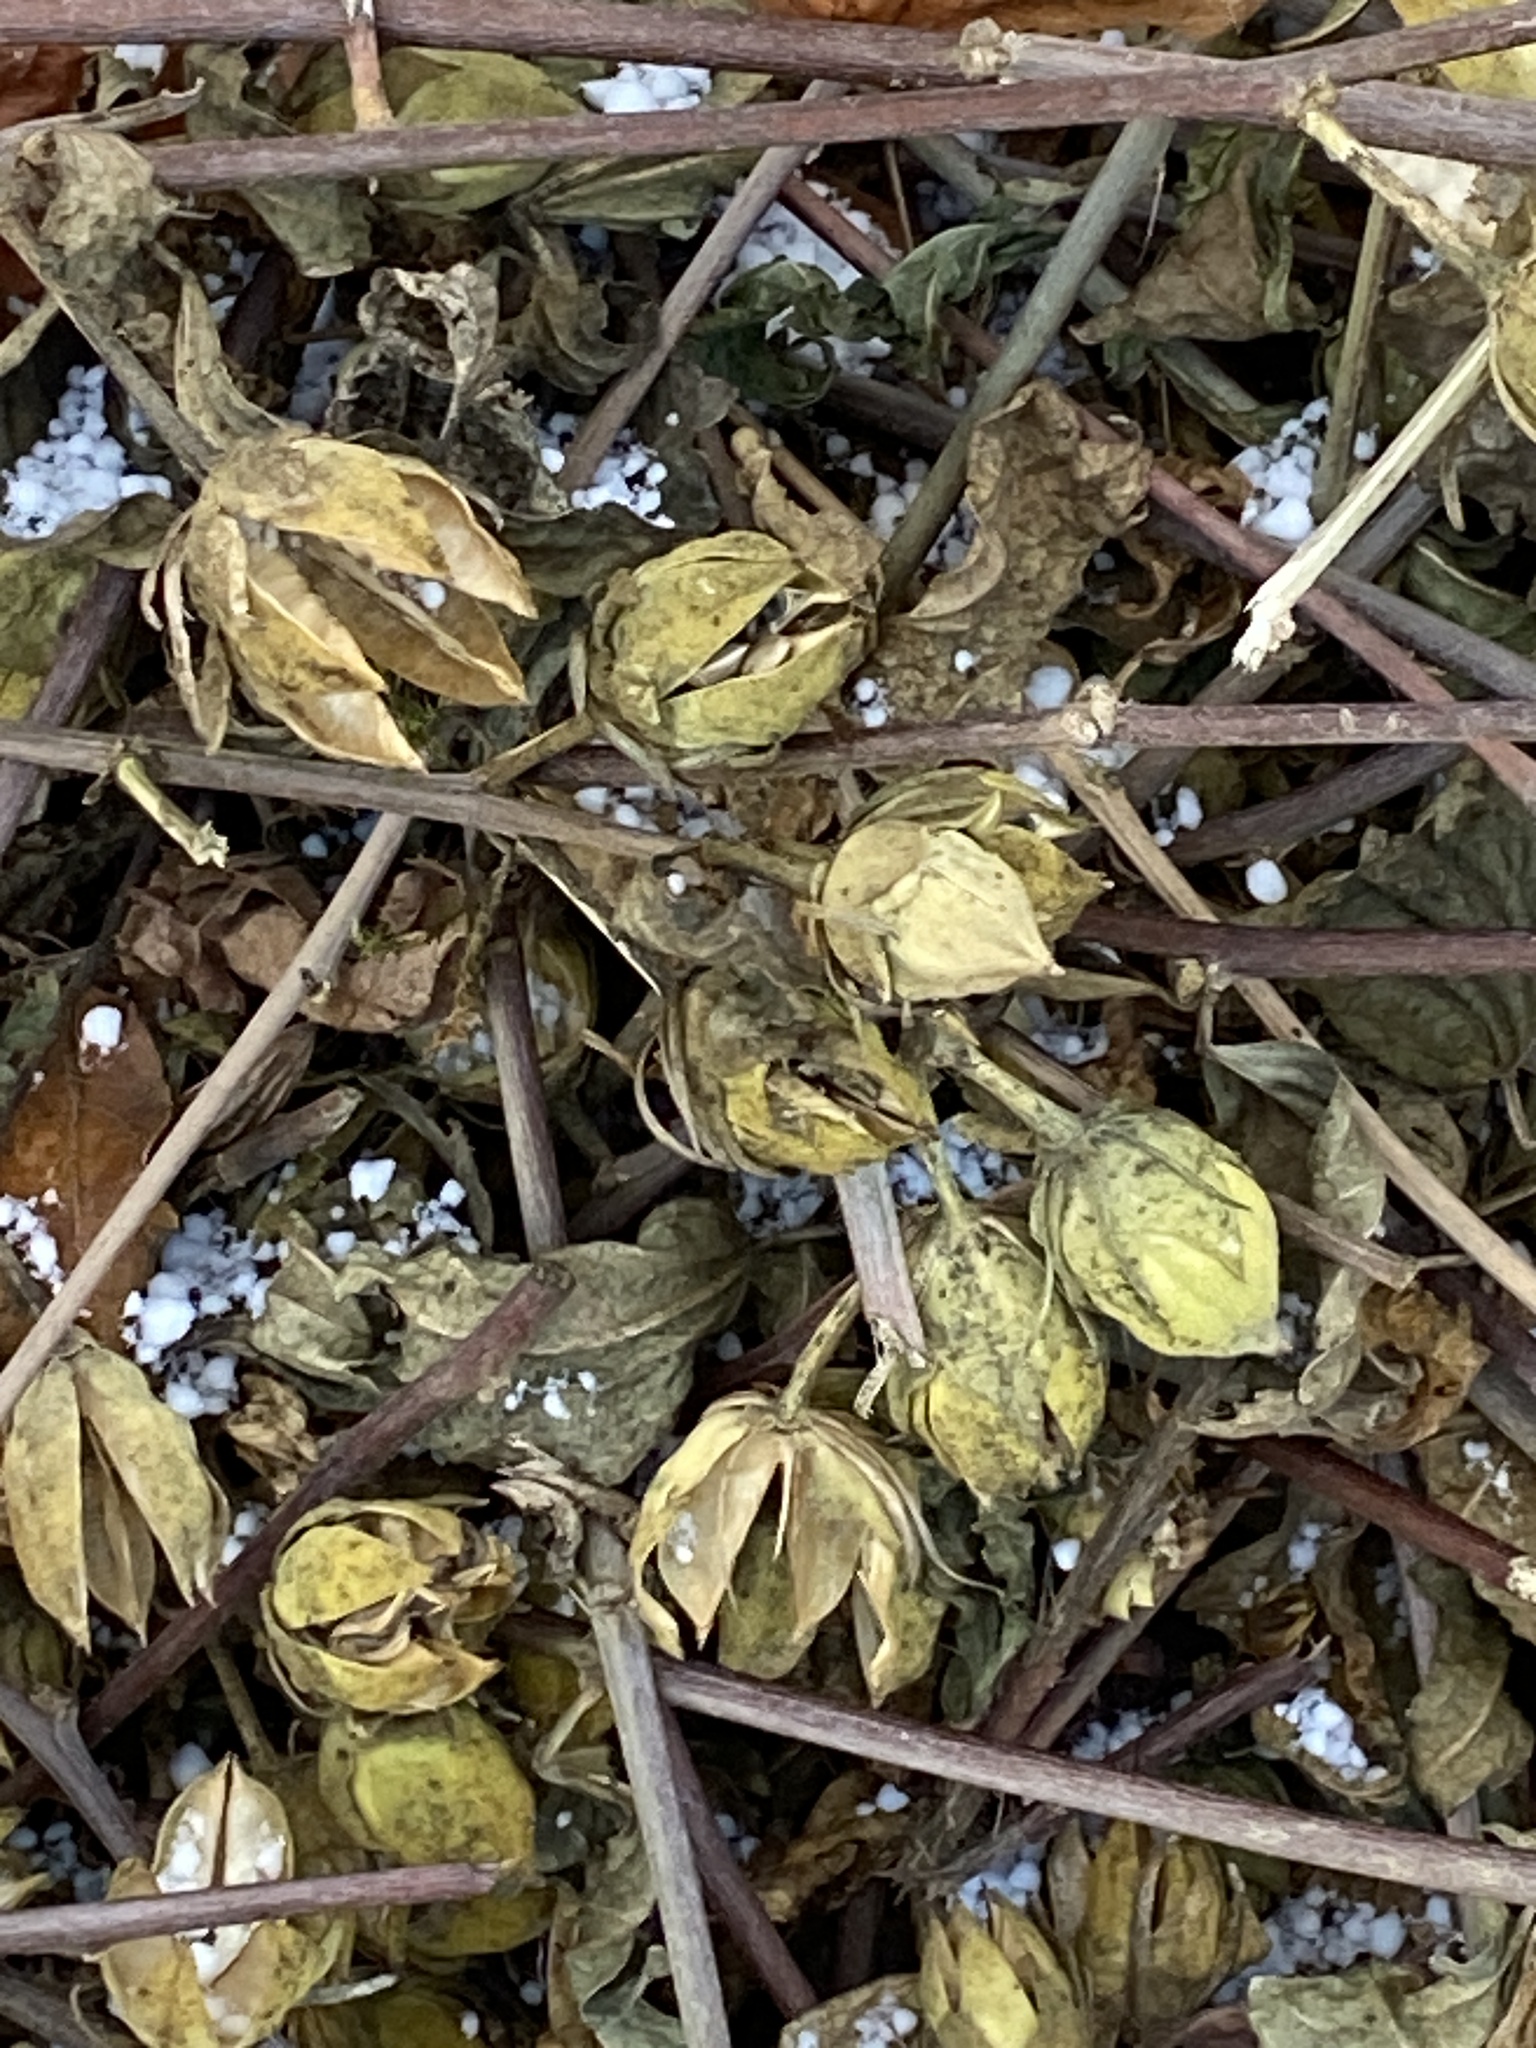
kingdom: Plantae
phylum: Tracheophyta
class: Magnoliopsida
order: Malvales
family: Malvaceae
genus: Hibiscus
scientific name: Hibiscus syriacus
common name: Syrian ketmia
